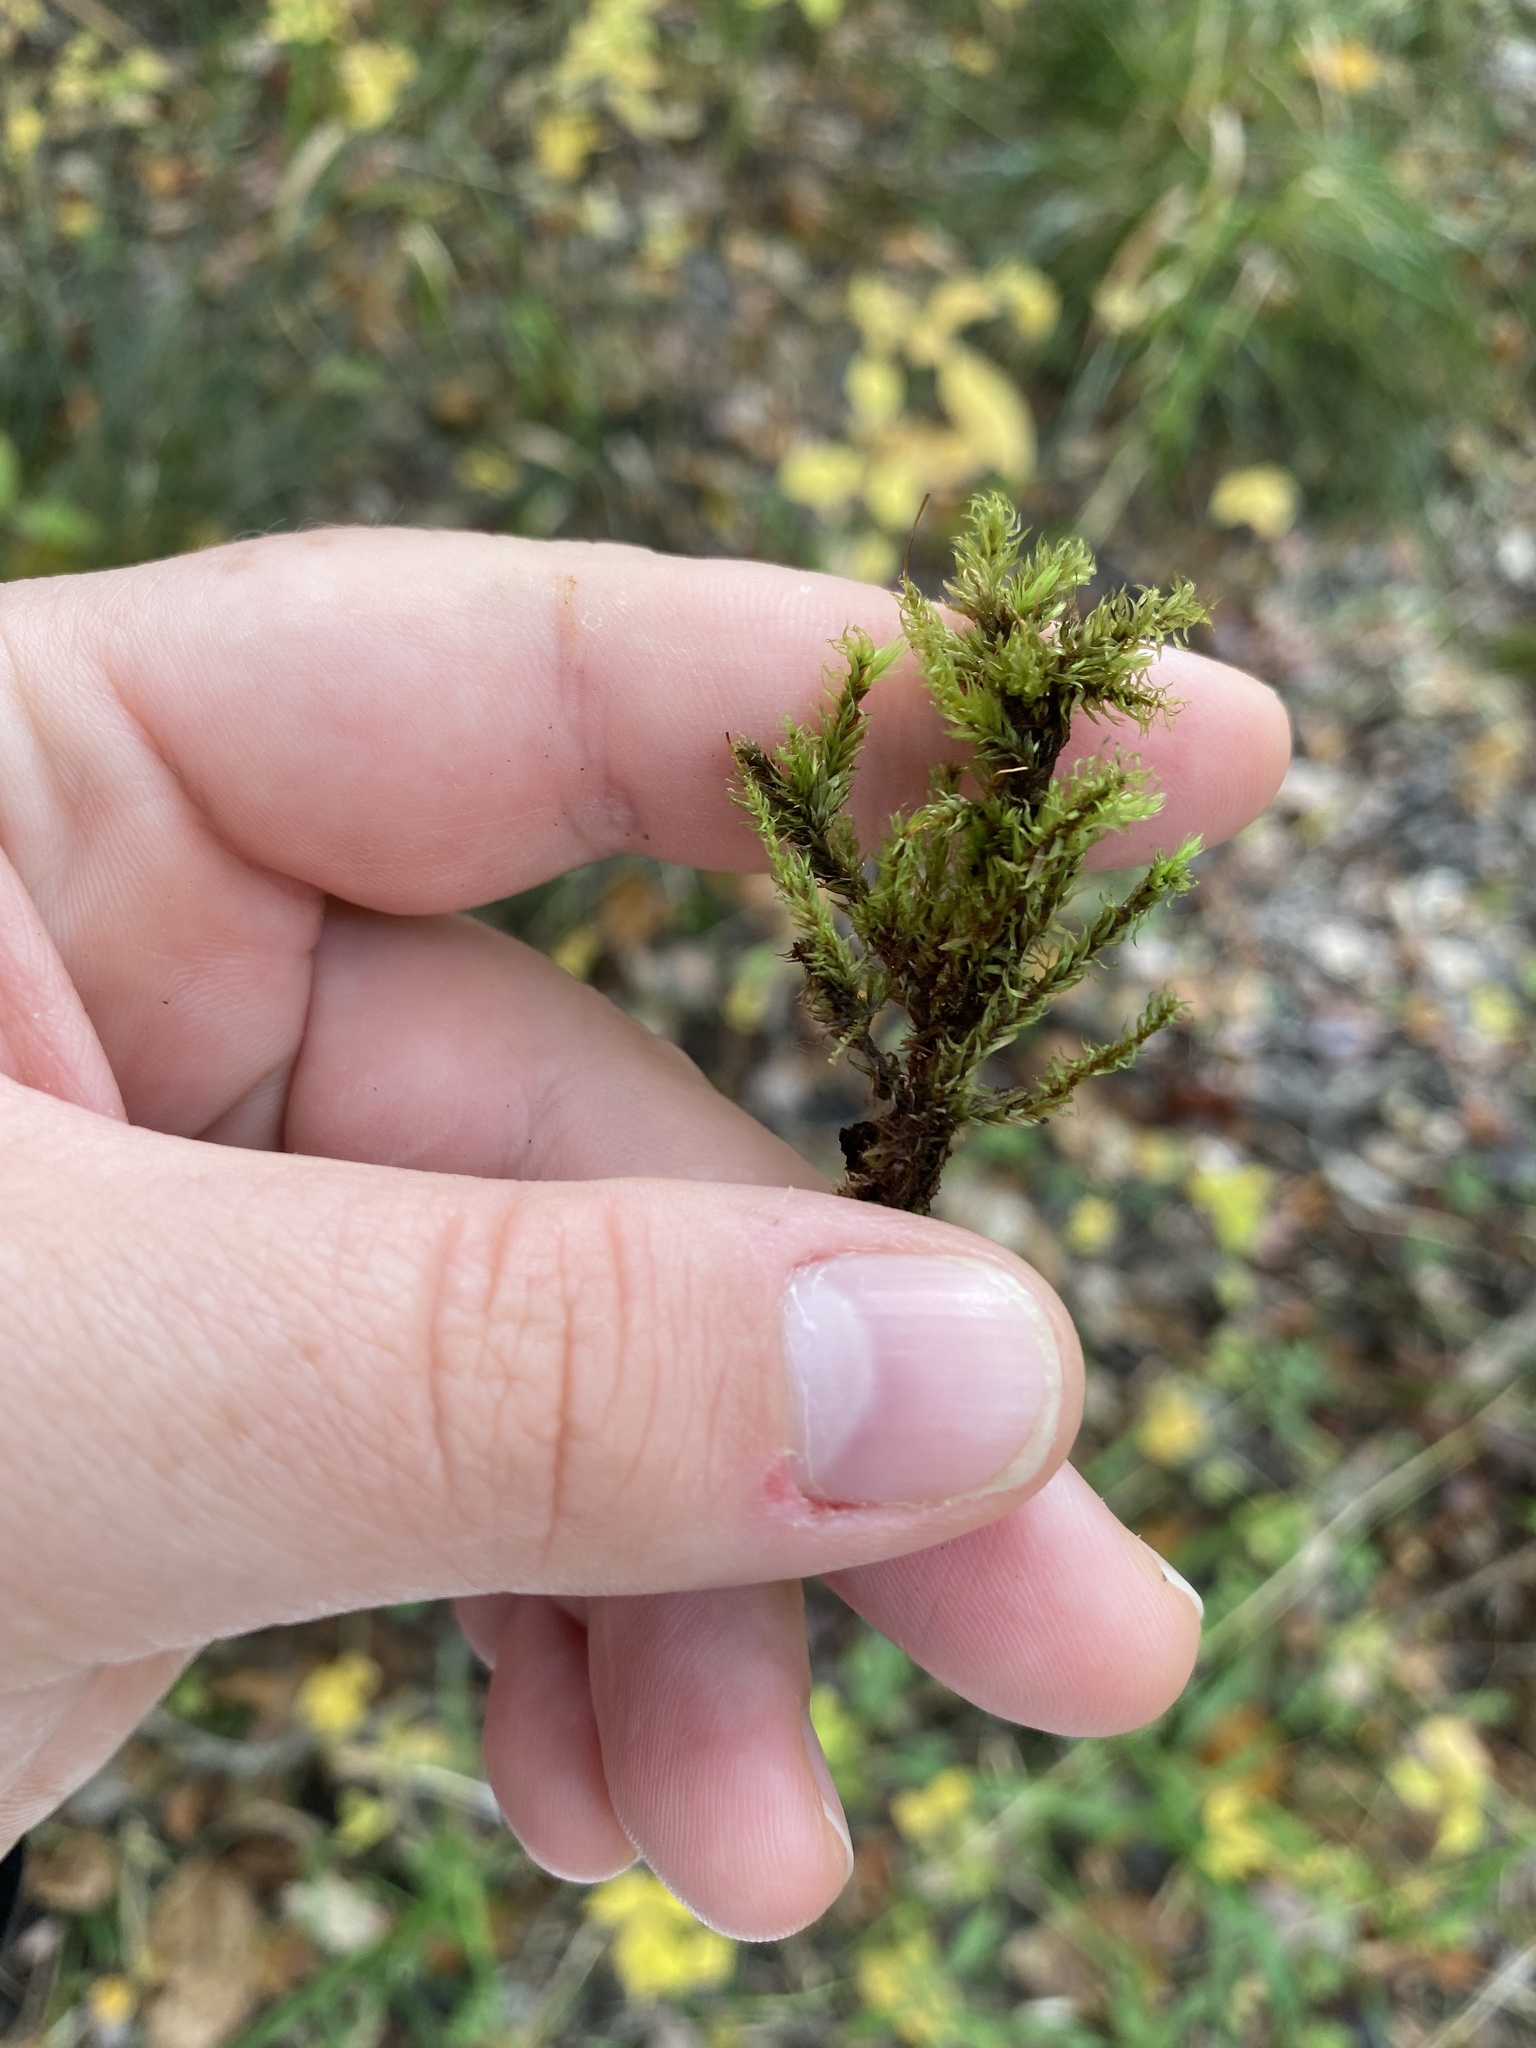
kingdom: Plantae
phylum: Bryophyta
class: Bryopsida
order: Aulacomniales
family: Aulacomniaceae
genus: Aulacomnium
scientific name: Aulacomnium palustre
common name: Bog groove-moss
